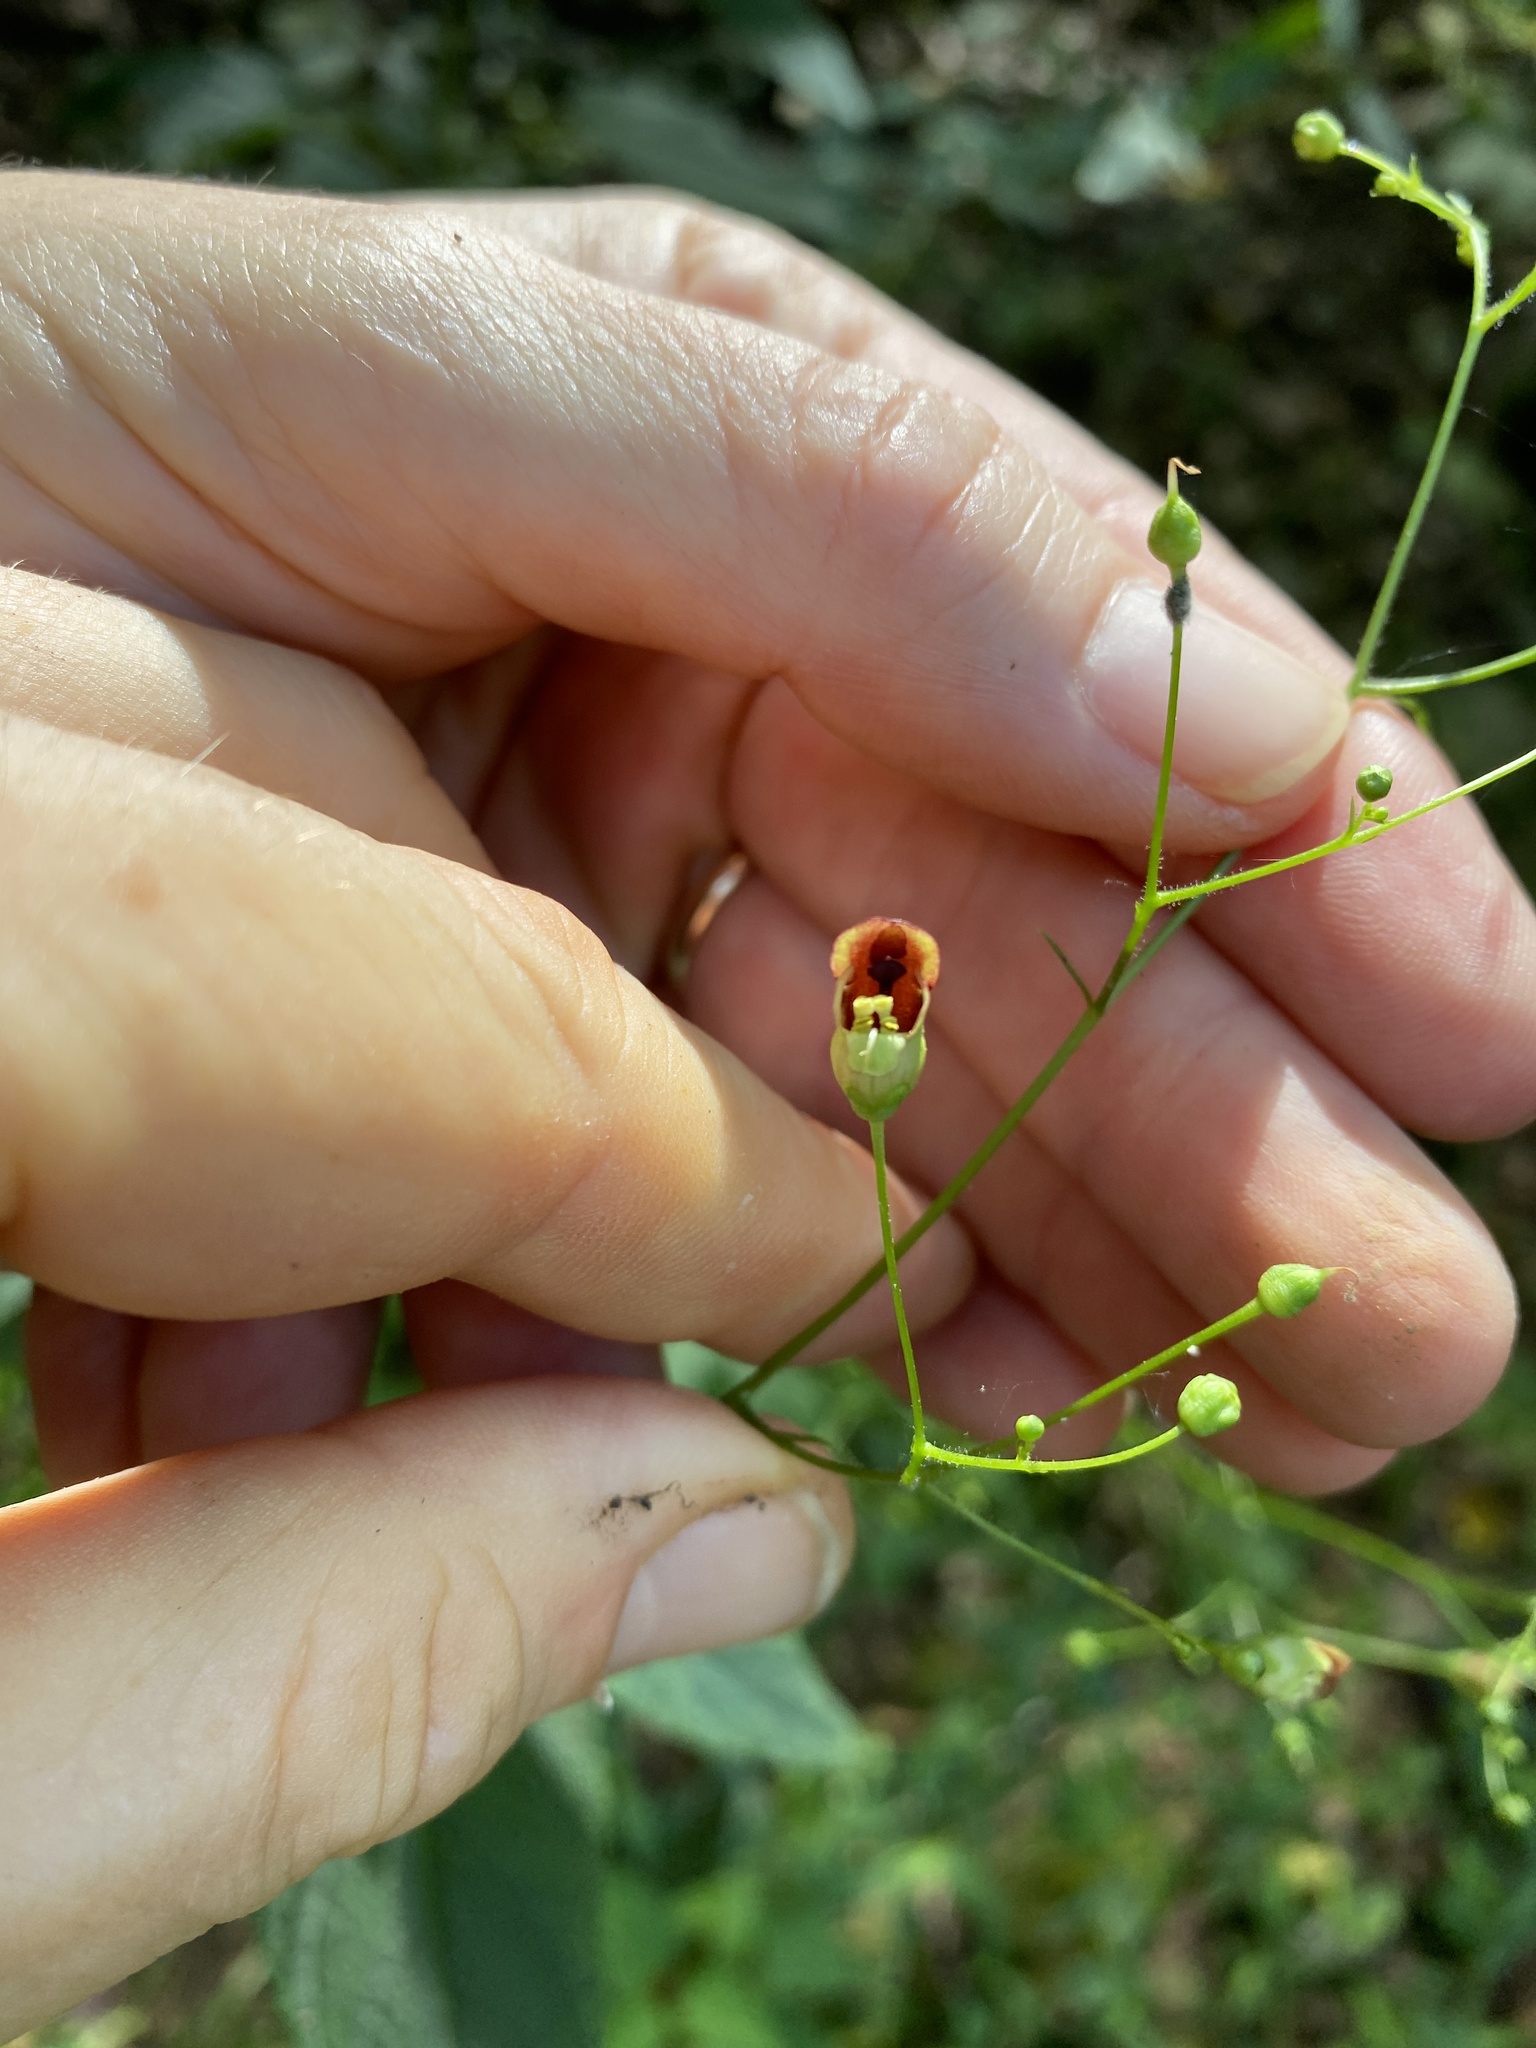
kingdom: Plantae
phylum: Tracheophyta
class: Magnoliopsida
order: Lamiales
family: Scrophulariaceae
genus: Scrophularia
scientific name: Scrophularia marilandica
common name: Eastern figwort
